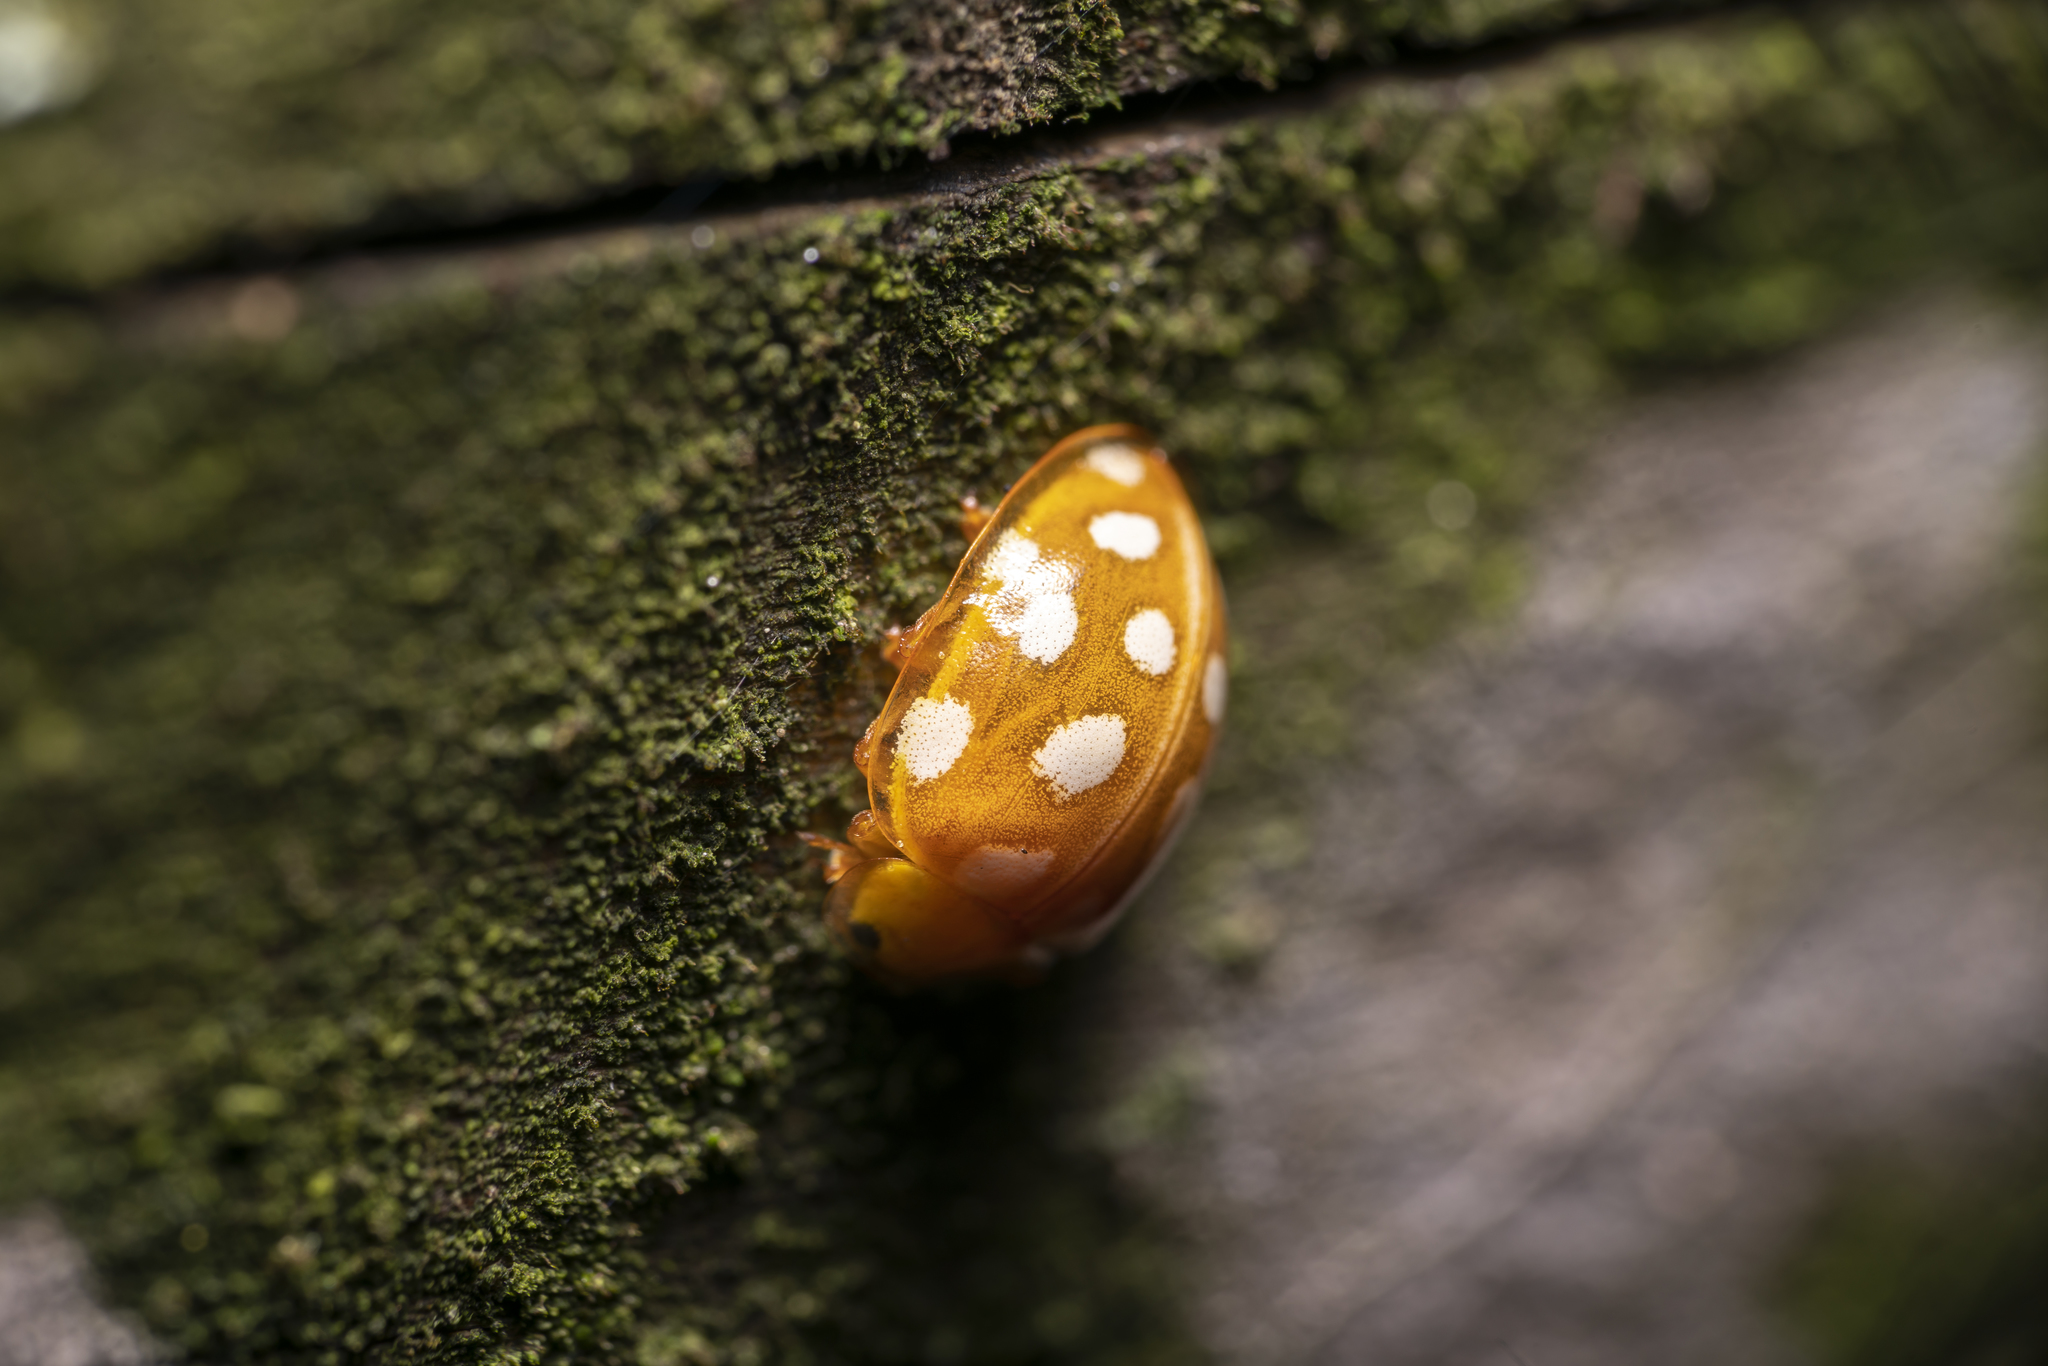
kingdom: Animalia
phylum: Arthropoda
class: Insecta
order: Coleoptera
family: Coccinellidae
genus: Halyzia
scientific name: Halyzia sedecimguttata
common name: Orange ladybird
